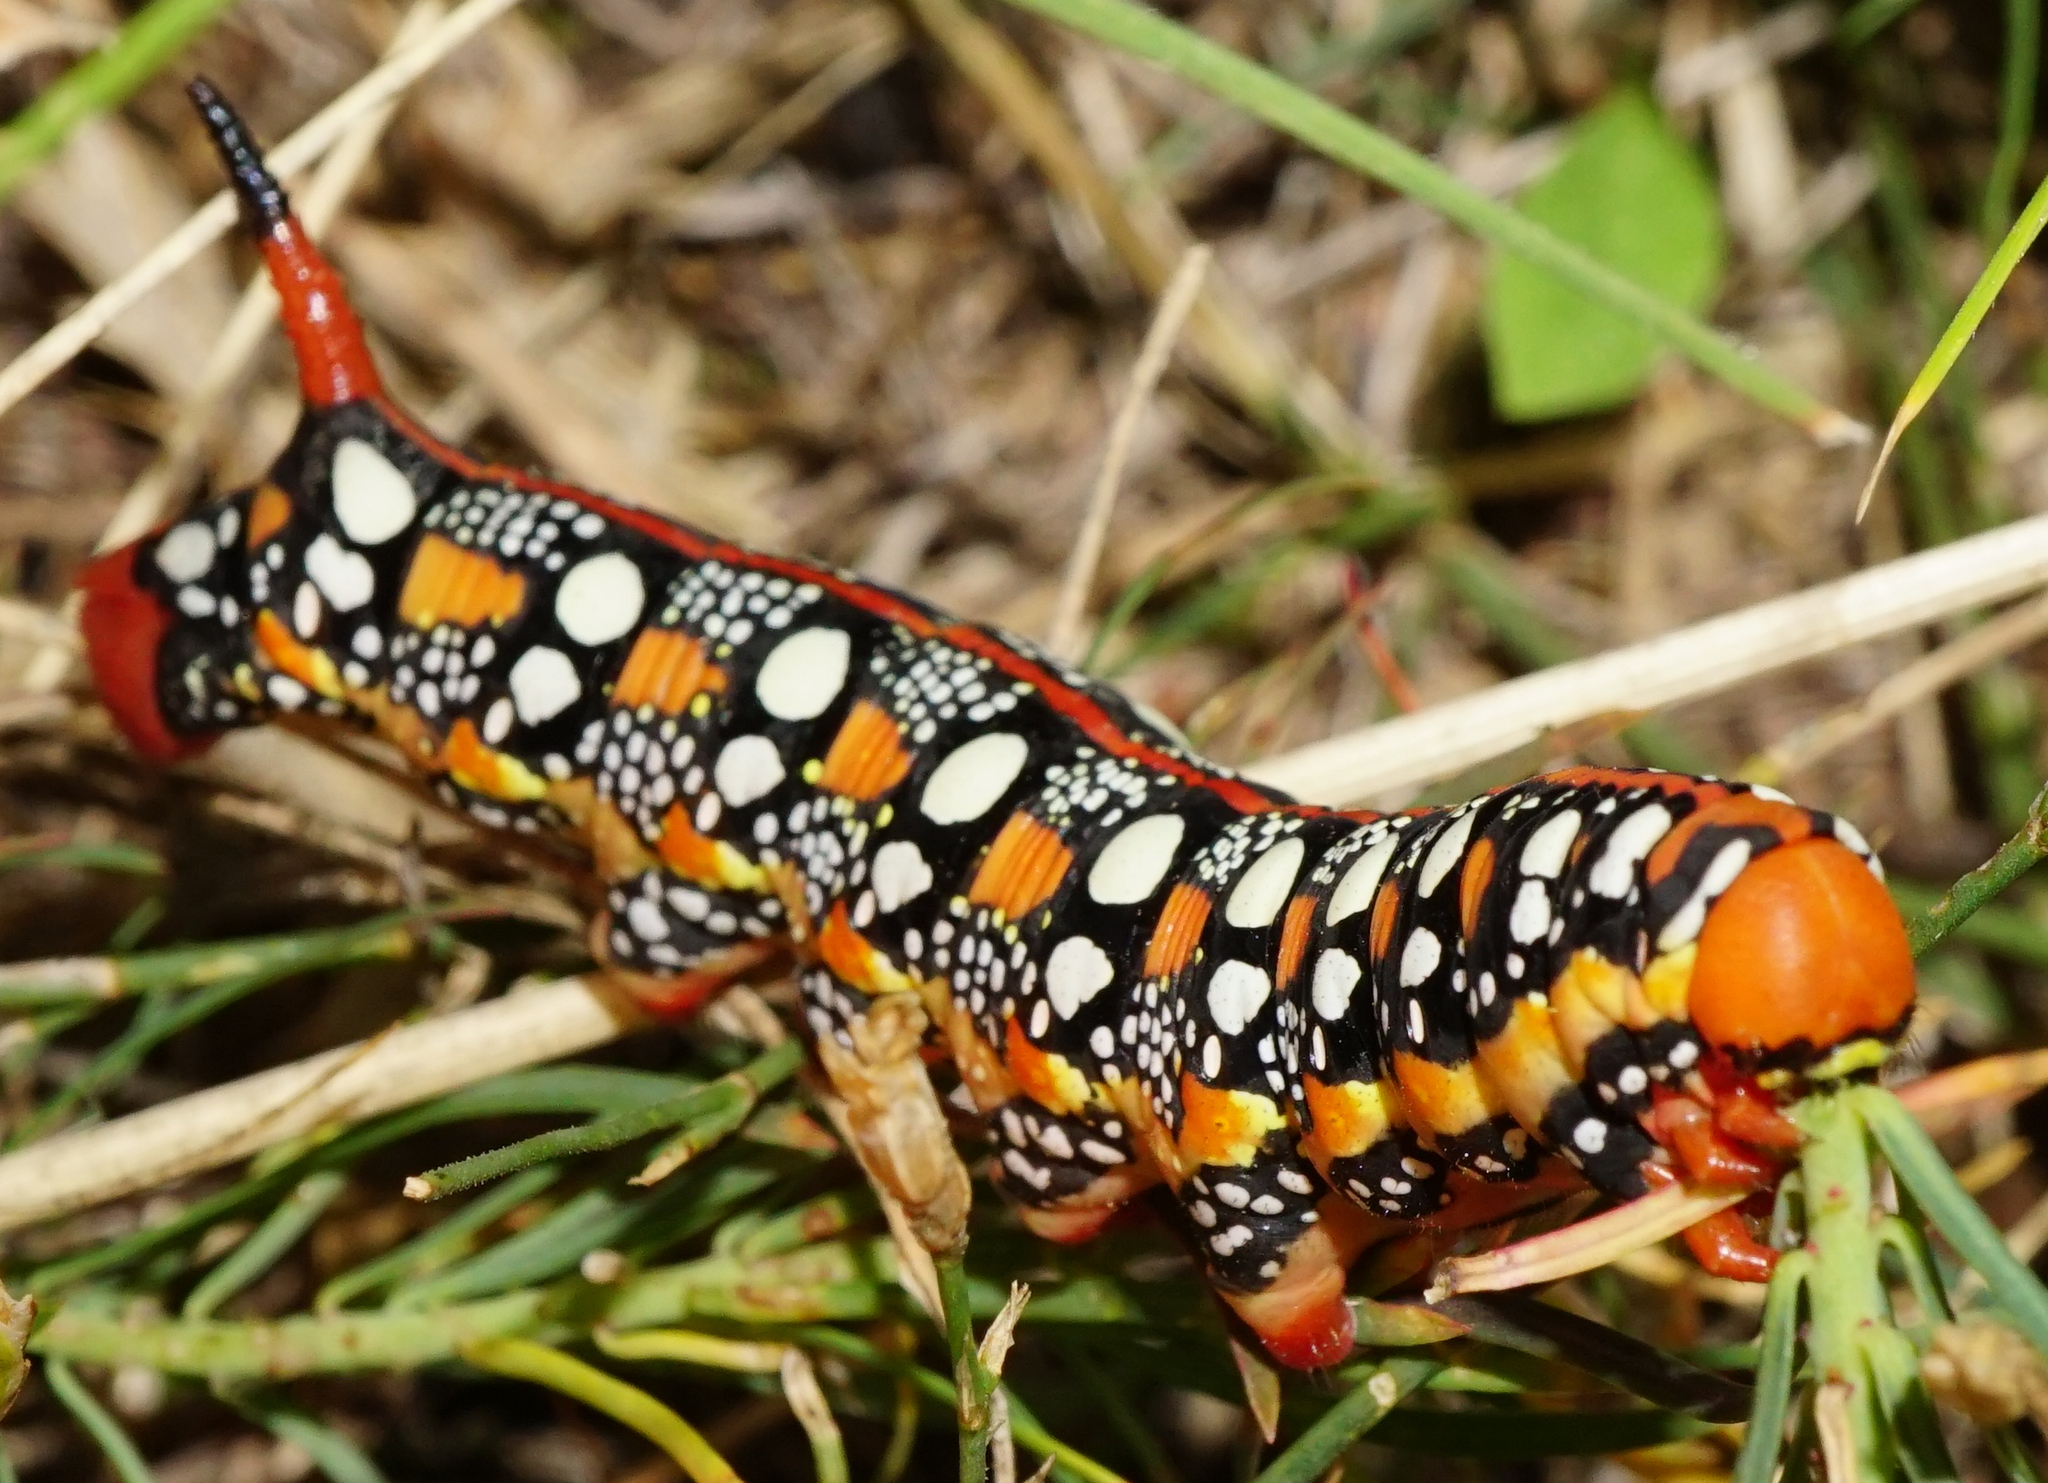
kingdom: Animalia
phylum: Arthropoda
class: Insecta
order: Lepidoptera
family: Sphingidae
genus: Hyles
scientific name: Hyles euphorbiae
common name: Spurge hawk-moth
